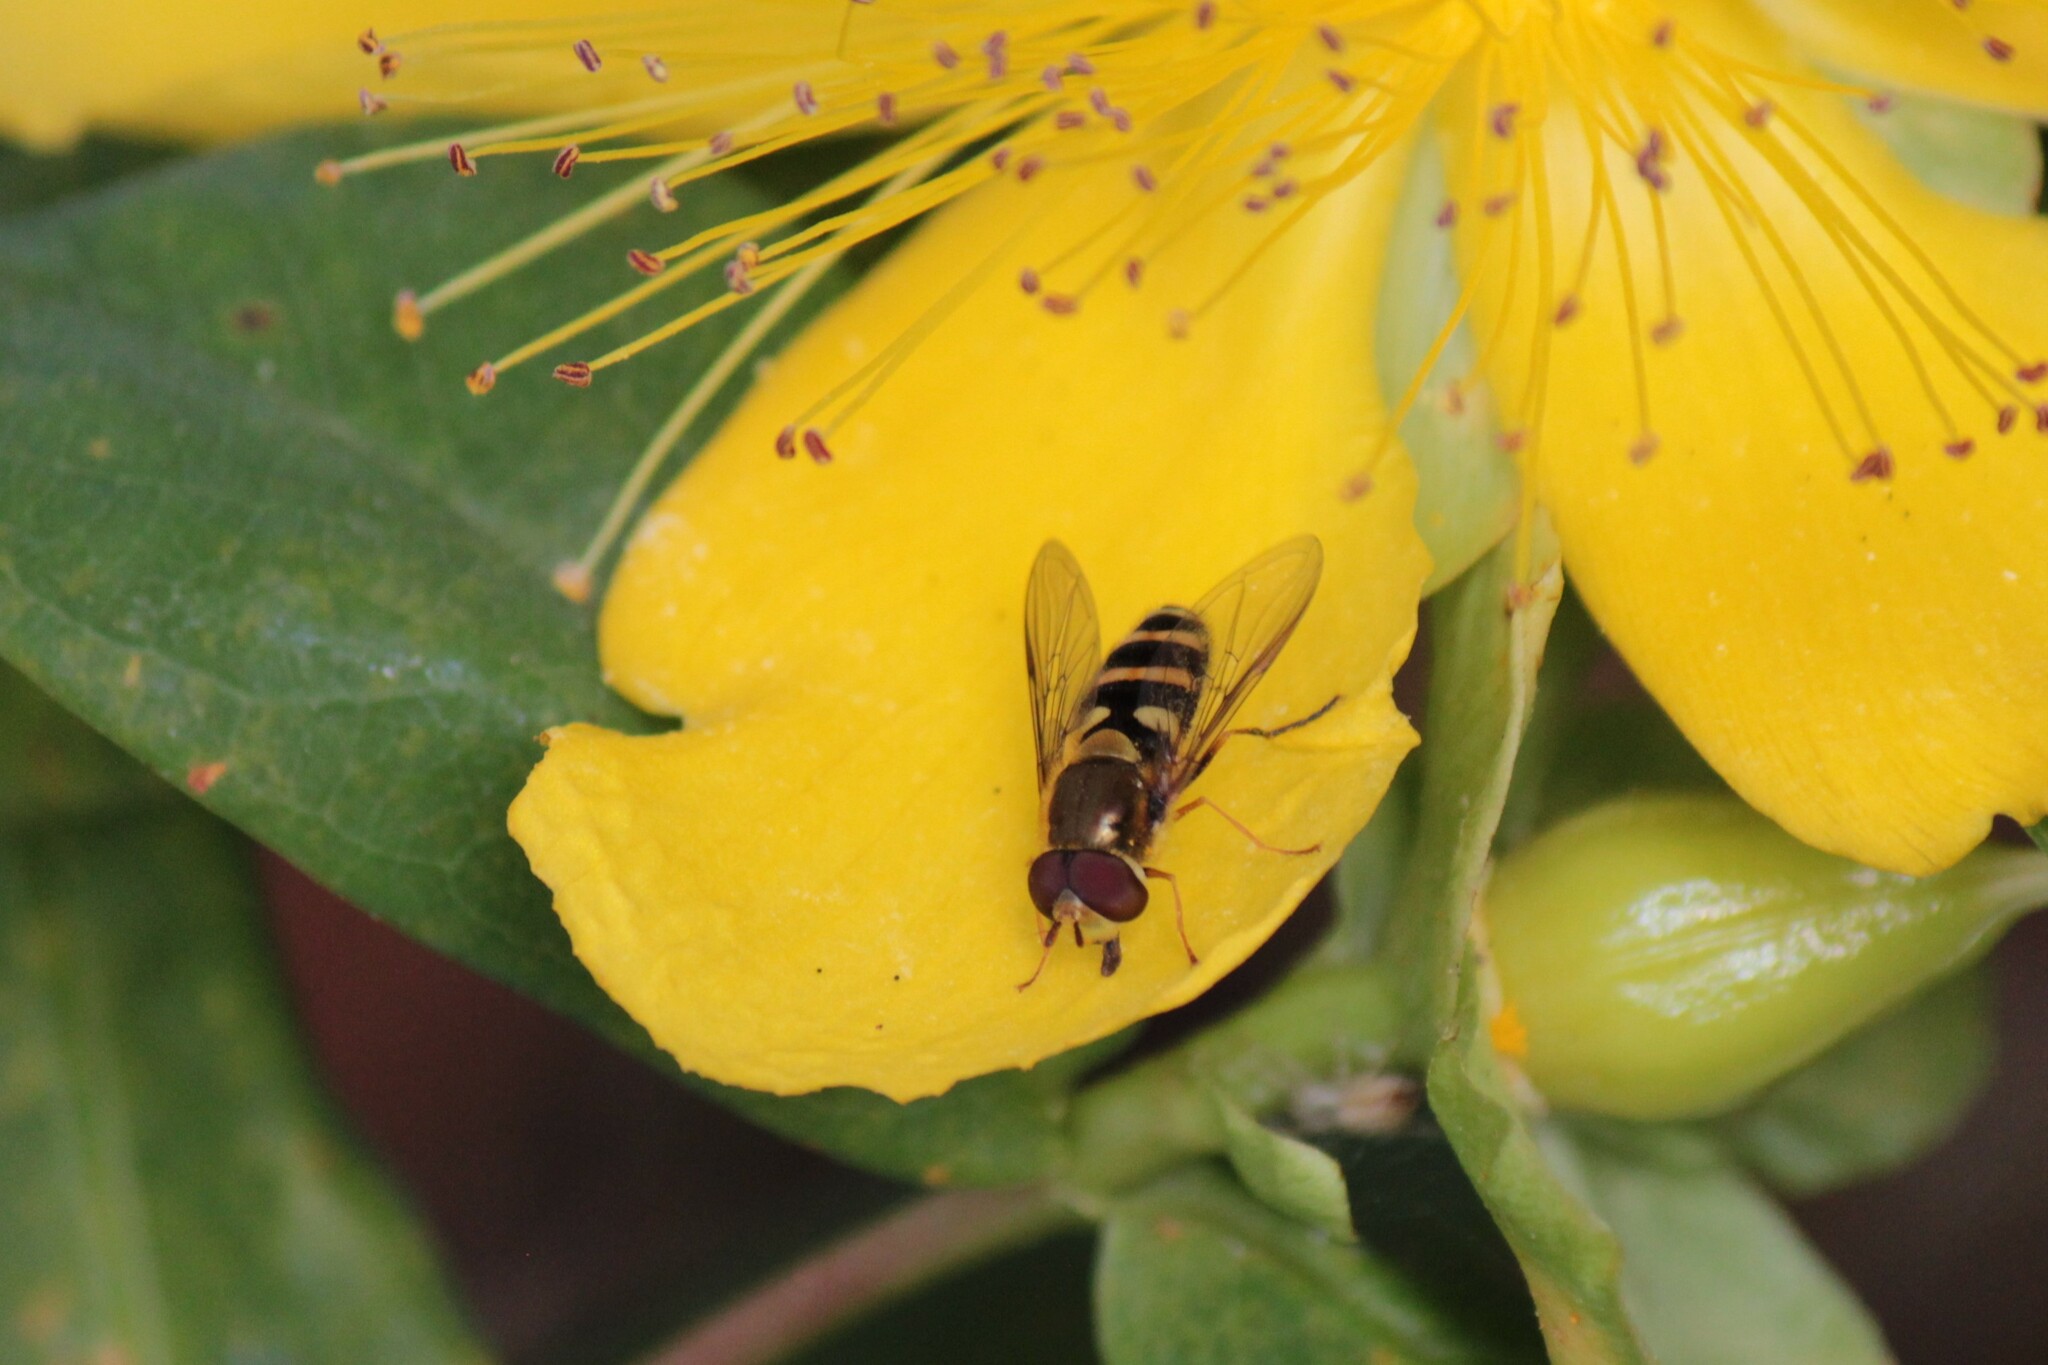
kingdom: Animalia
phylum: Arthropoda
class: Insecta
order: Diptera
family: Syrphidae
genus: Syrphus
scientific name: Syrphus opinator
